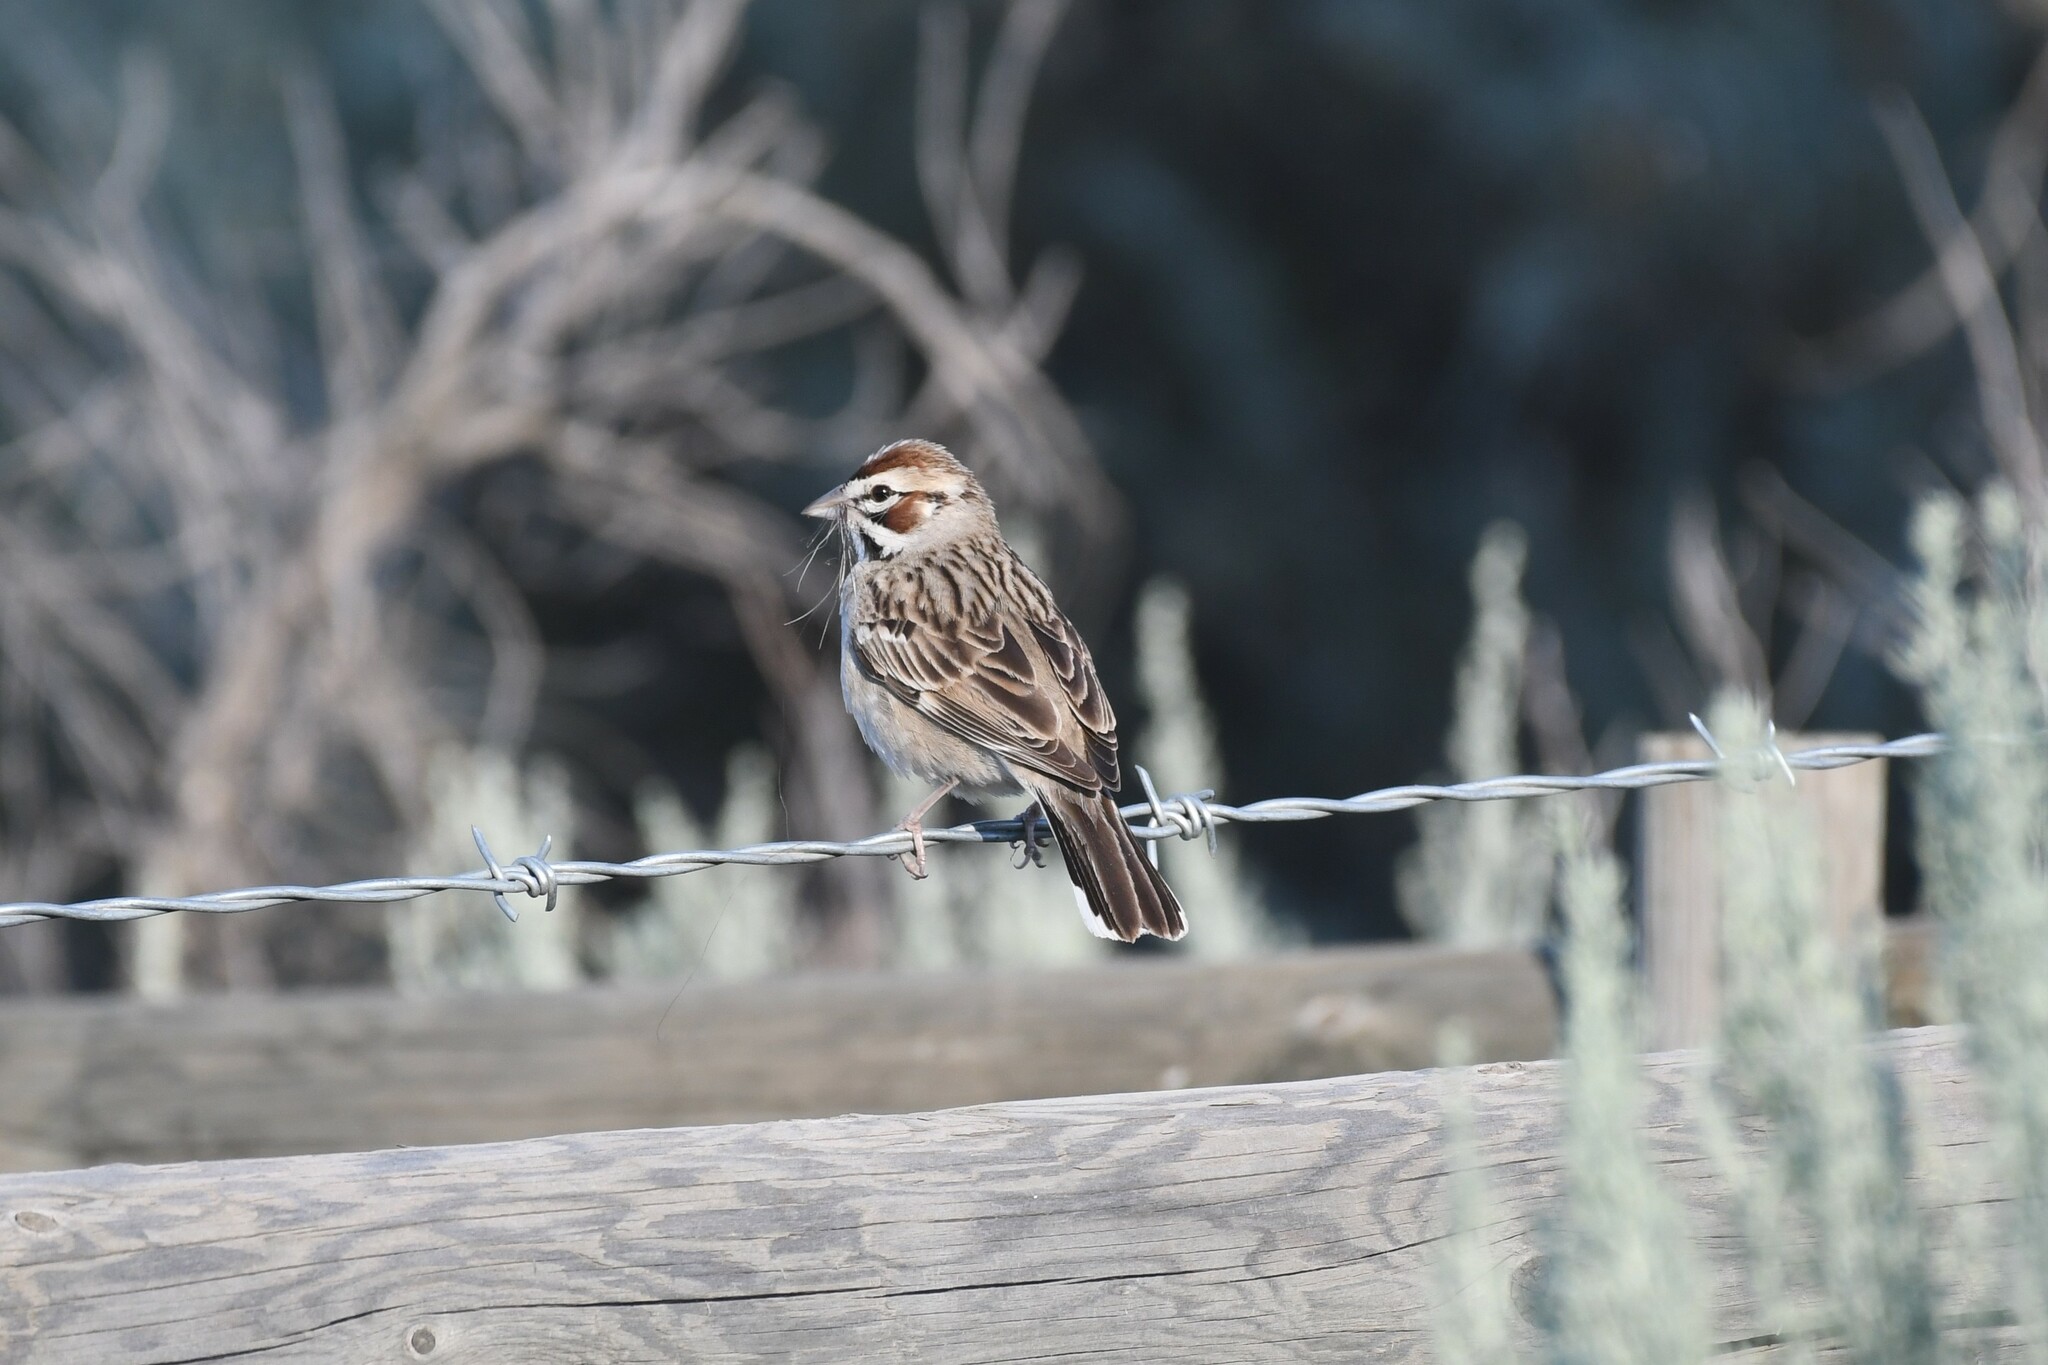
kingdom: Animalia
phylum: Chordata
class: Aves
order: Passeriformes
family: Passerellidae
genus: Chondestes
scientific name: Chondestes grammacus
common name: Lark sparrow
